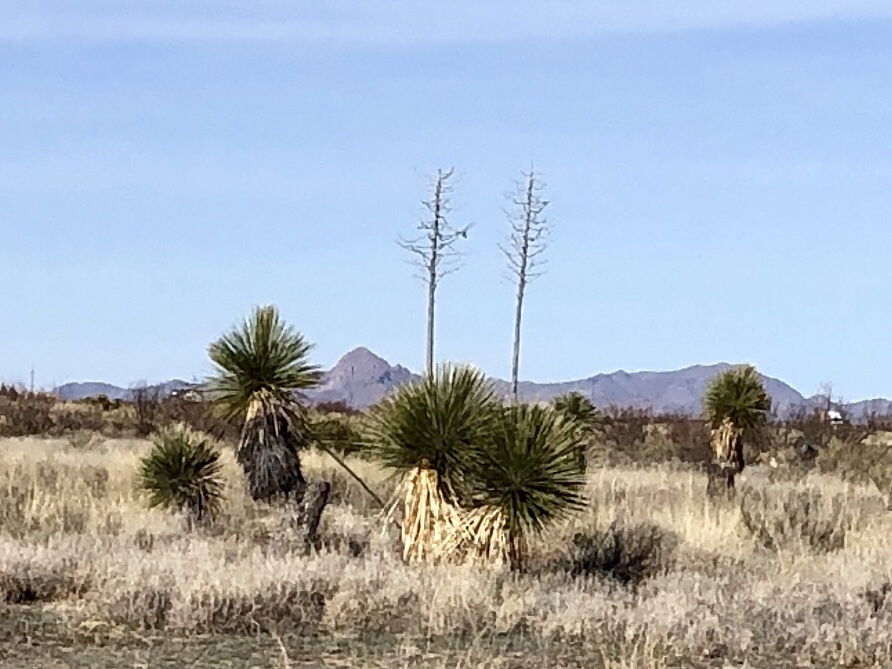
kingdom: Plantae
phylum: Tracheophyta
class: Liliopsida
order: Asparagales
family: Asparagaceae
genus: Yucca
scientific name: Yucca elata
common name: Palmella
